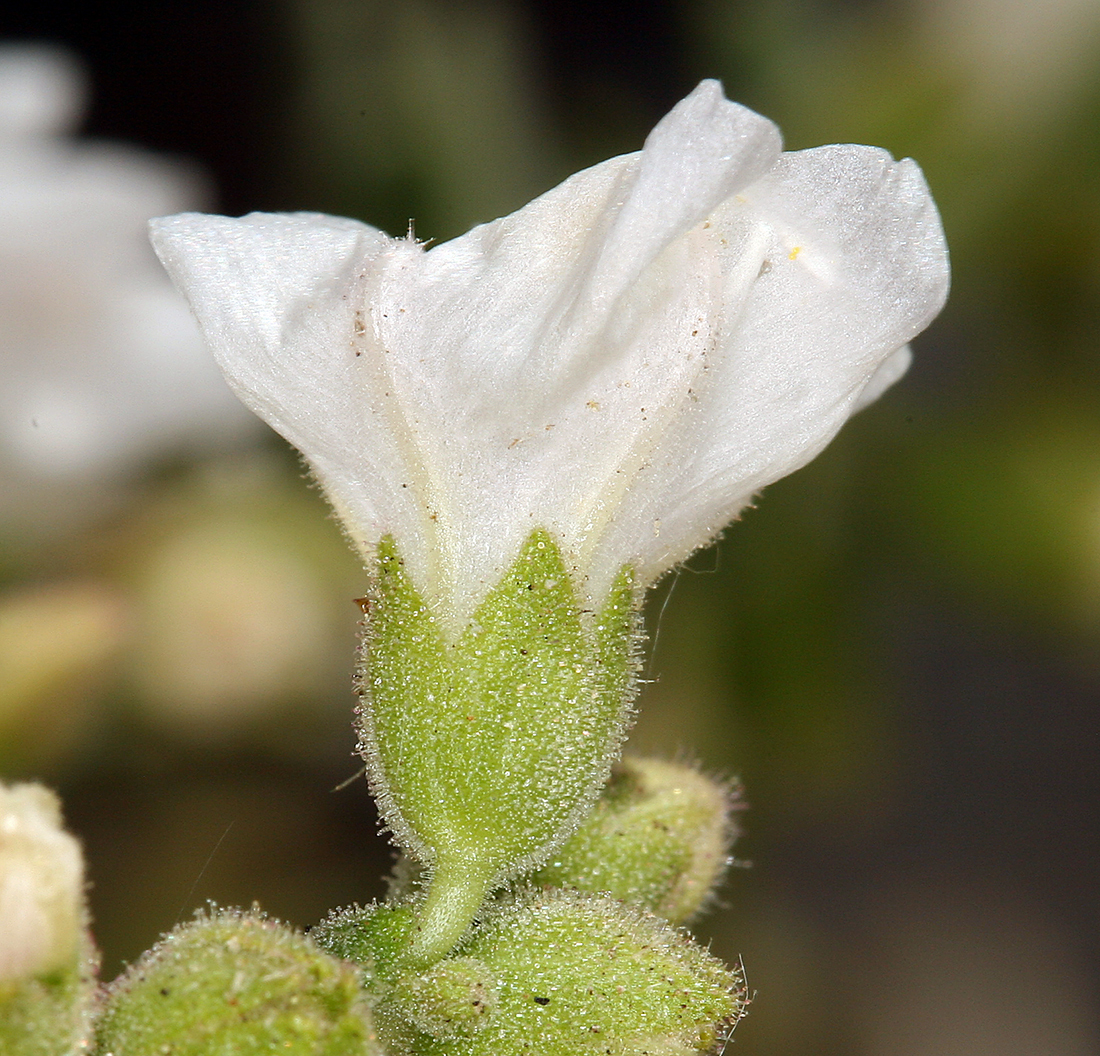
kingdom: Plantae
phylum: Tracheophyta
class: Magnoliopsida
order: Caryophyllales
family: Nyctaginaceae
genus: Mirabilis
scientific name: Mirabilis laevis
